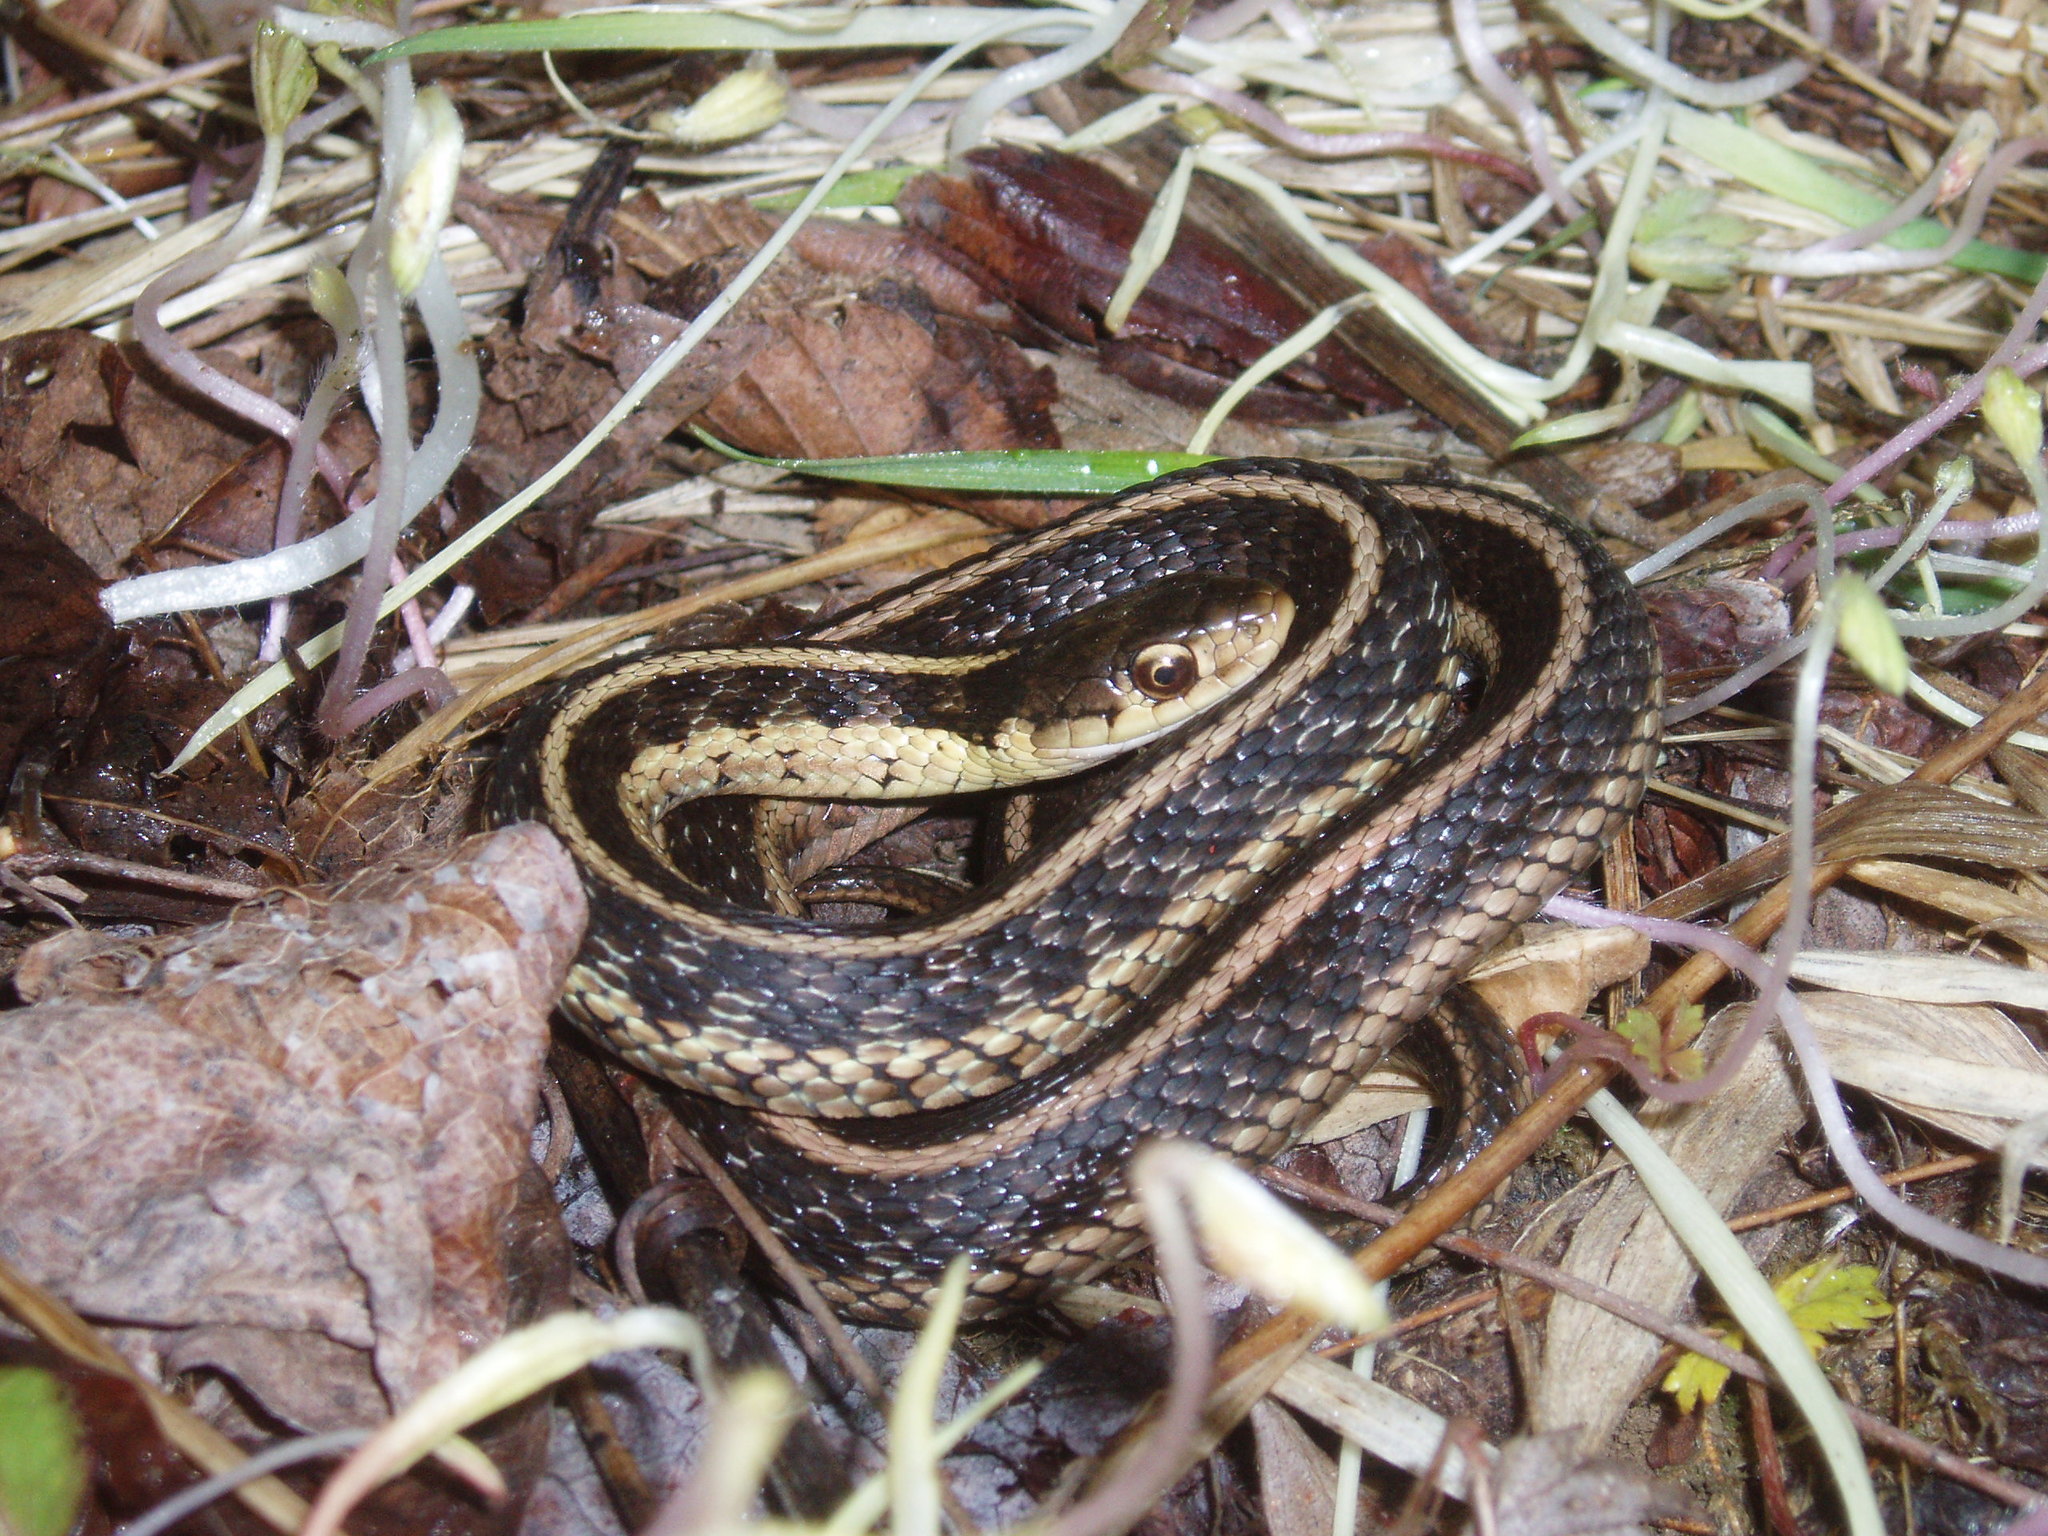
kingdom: Animalia
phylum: Chordata
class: Squamata
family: Colubridae
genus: Thamnophis
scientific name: Thamnophis sirtalis
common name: Common garter snake
